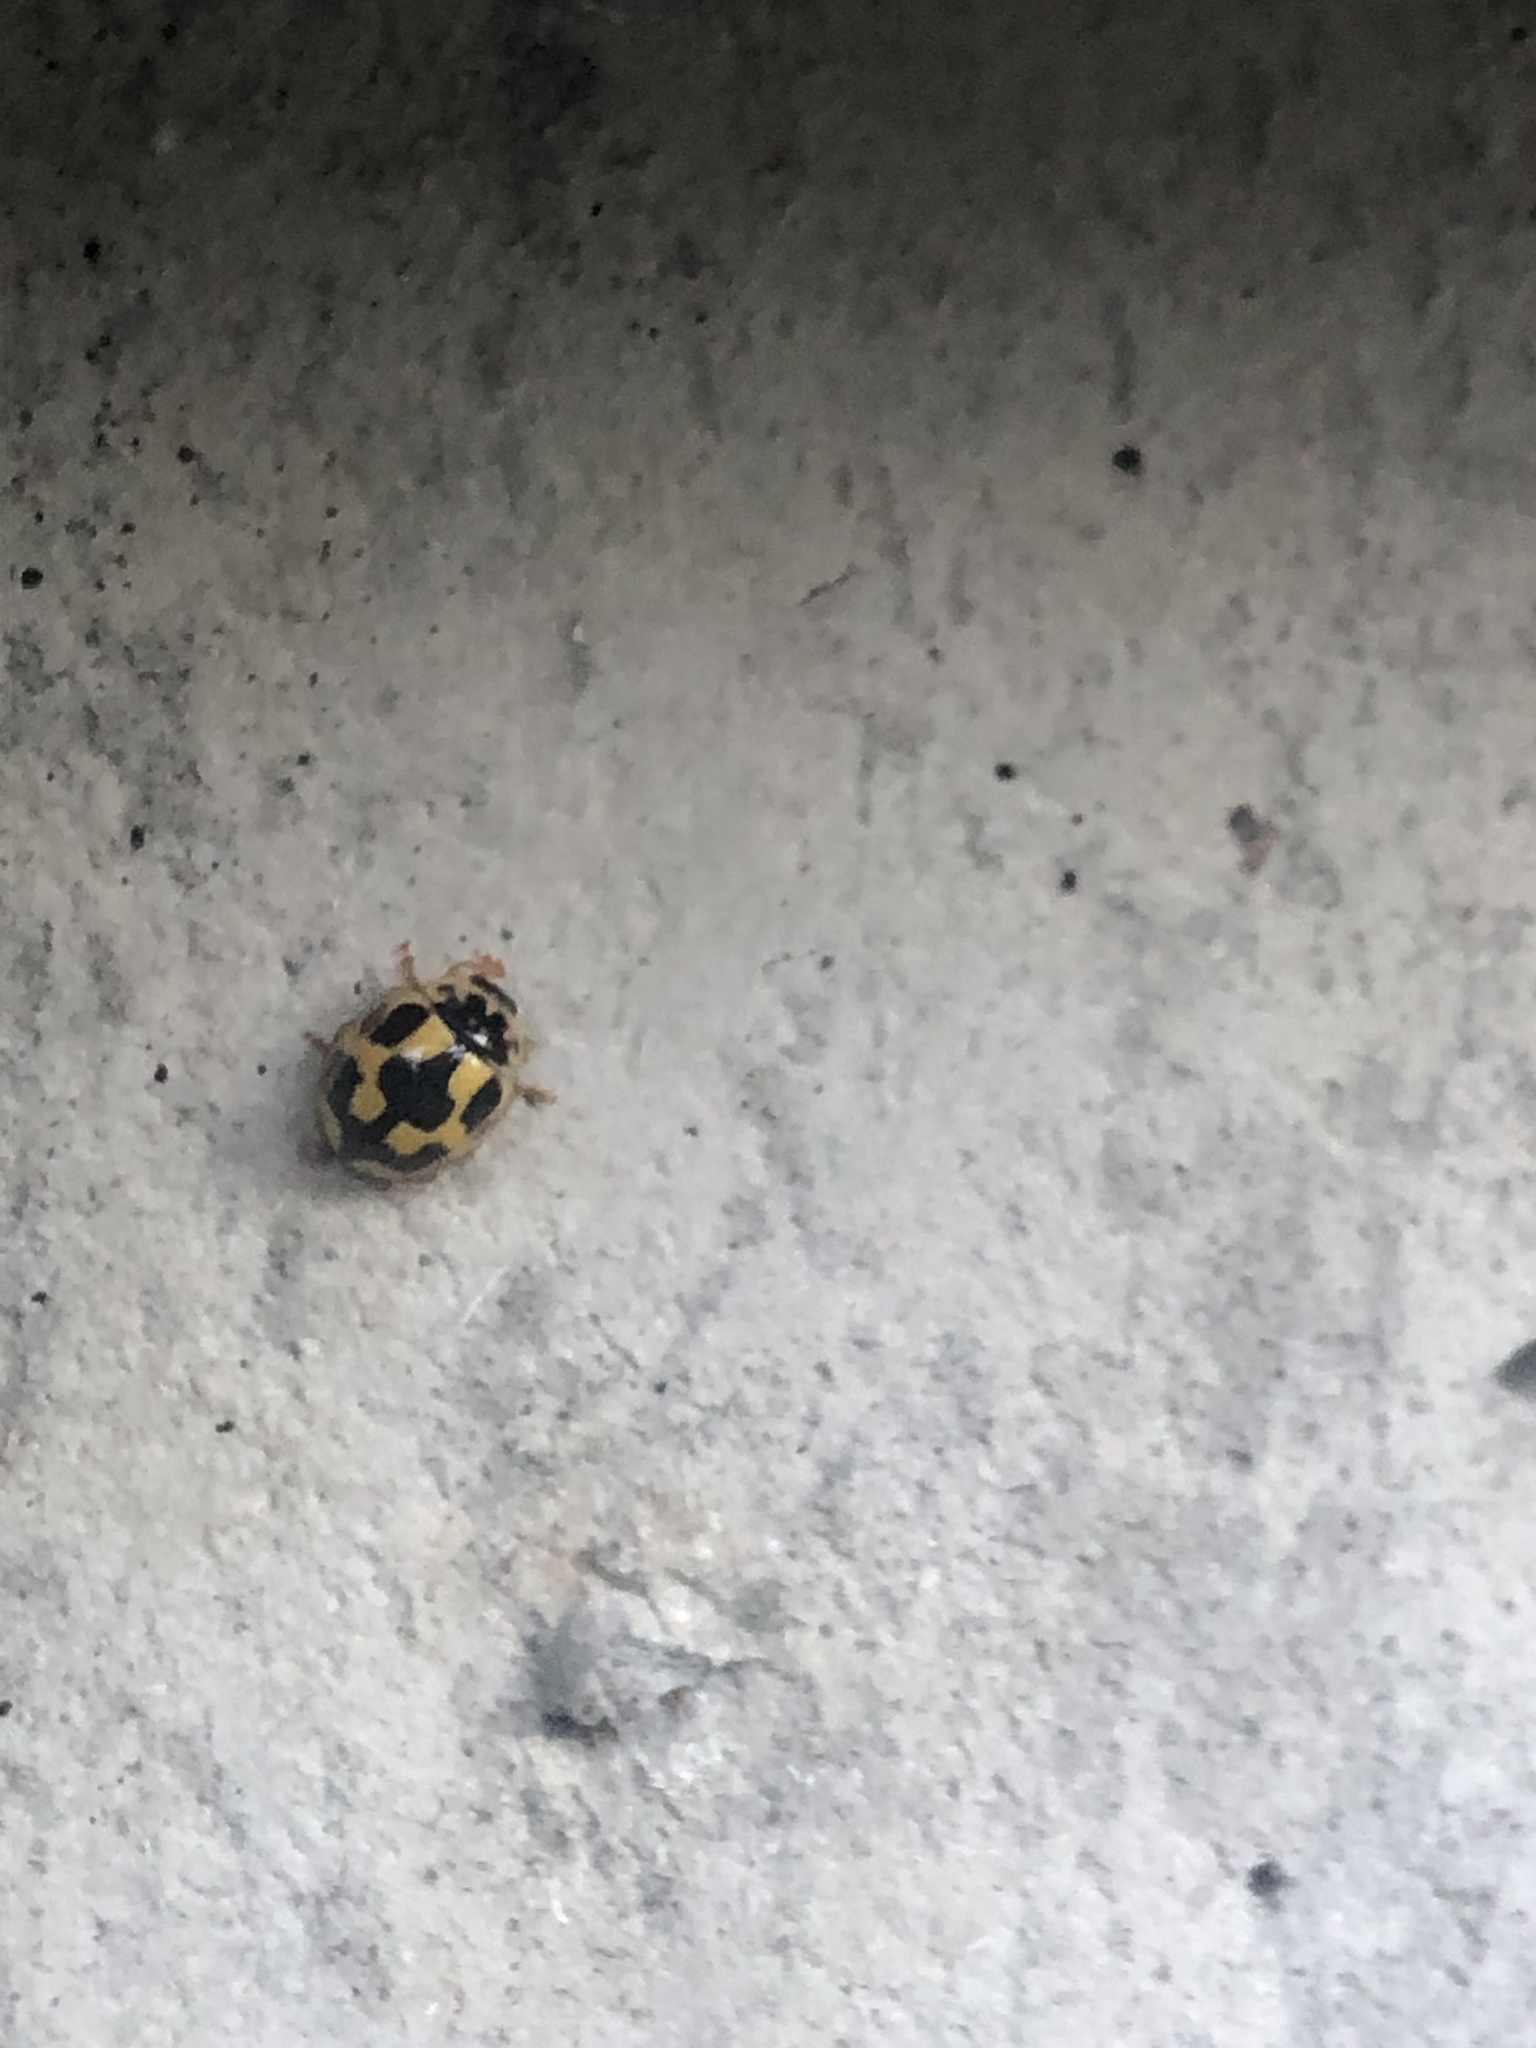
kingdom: Animalia
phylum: Arthropoda
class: Insecta
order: Coleoptera
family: Coccinellidae
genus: Propylaea
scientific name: Propylaea quatuordecimpunctata
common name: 14-spotted ladybird beetle
